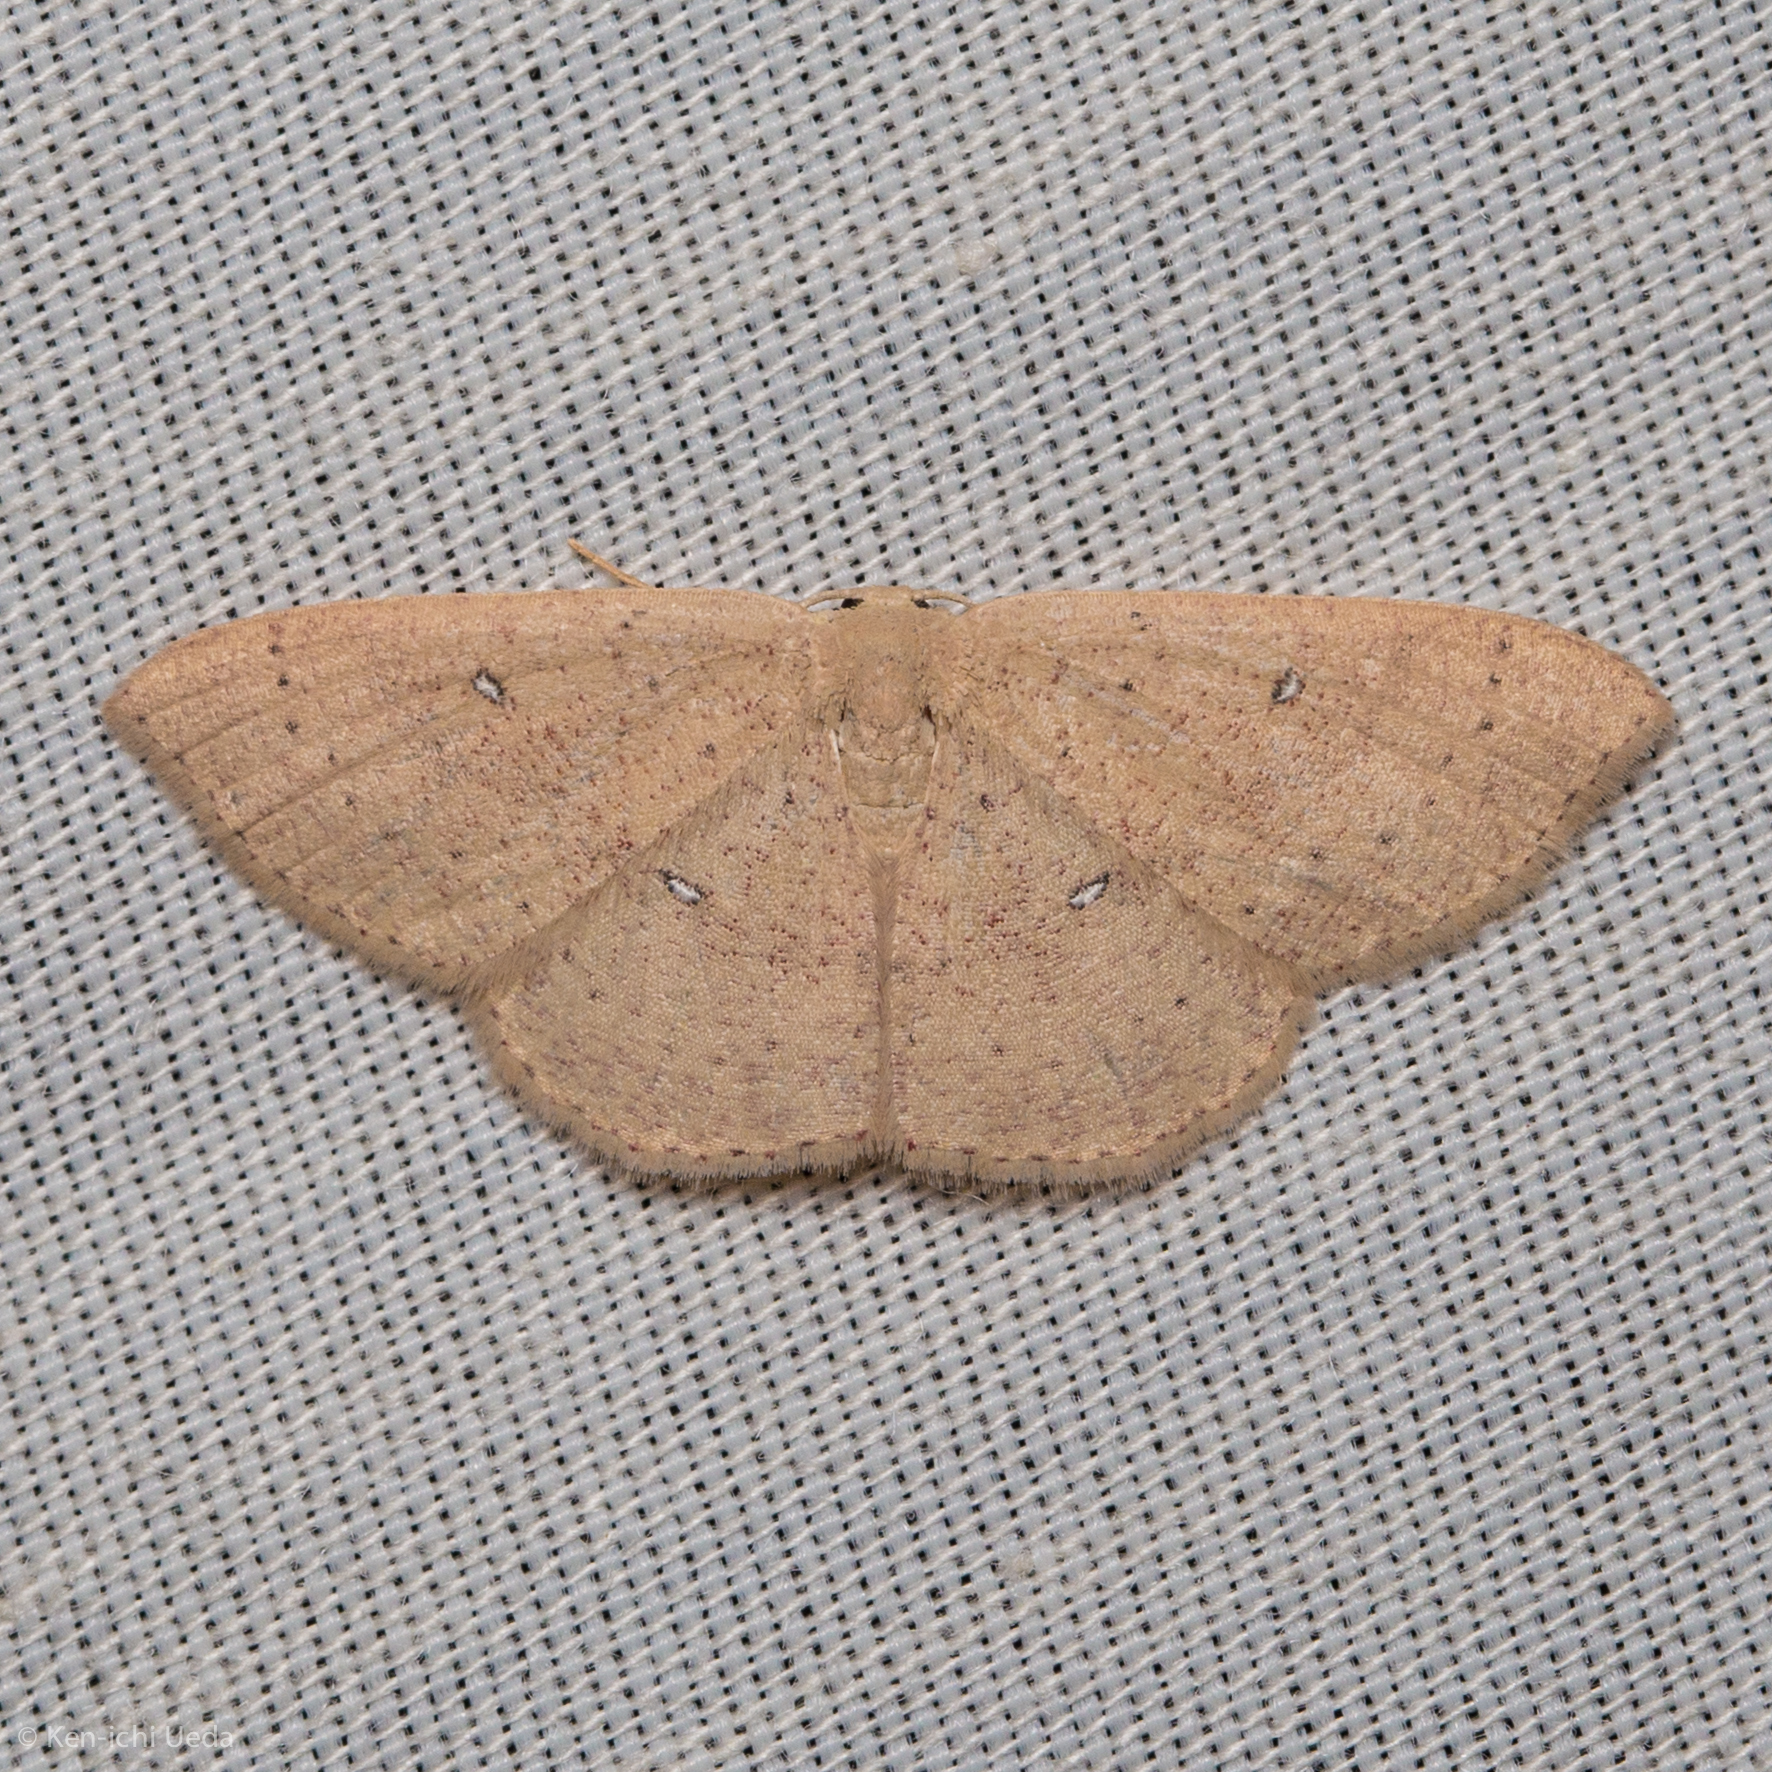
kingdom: Animalia
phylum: Arthropoda
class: Insecta
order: Lepidoptera
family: Geometridae
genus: Cyclophora
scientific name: Cyclophora dataria
